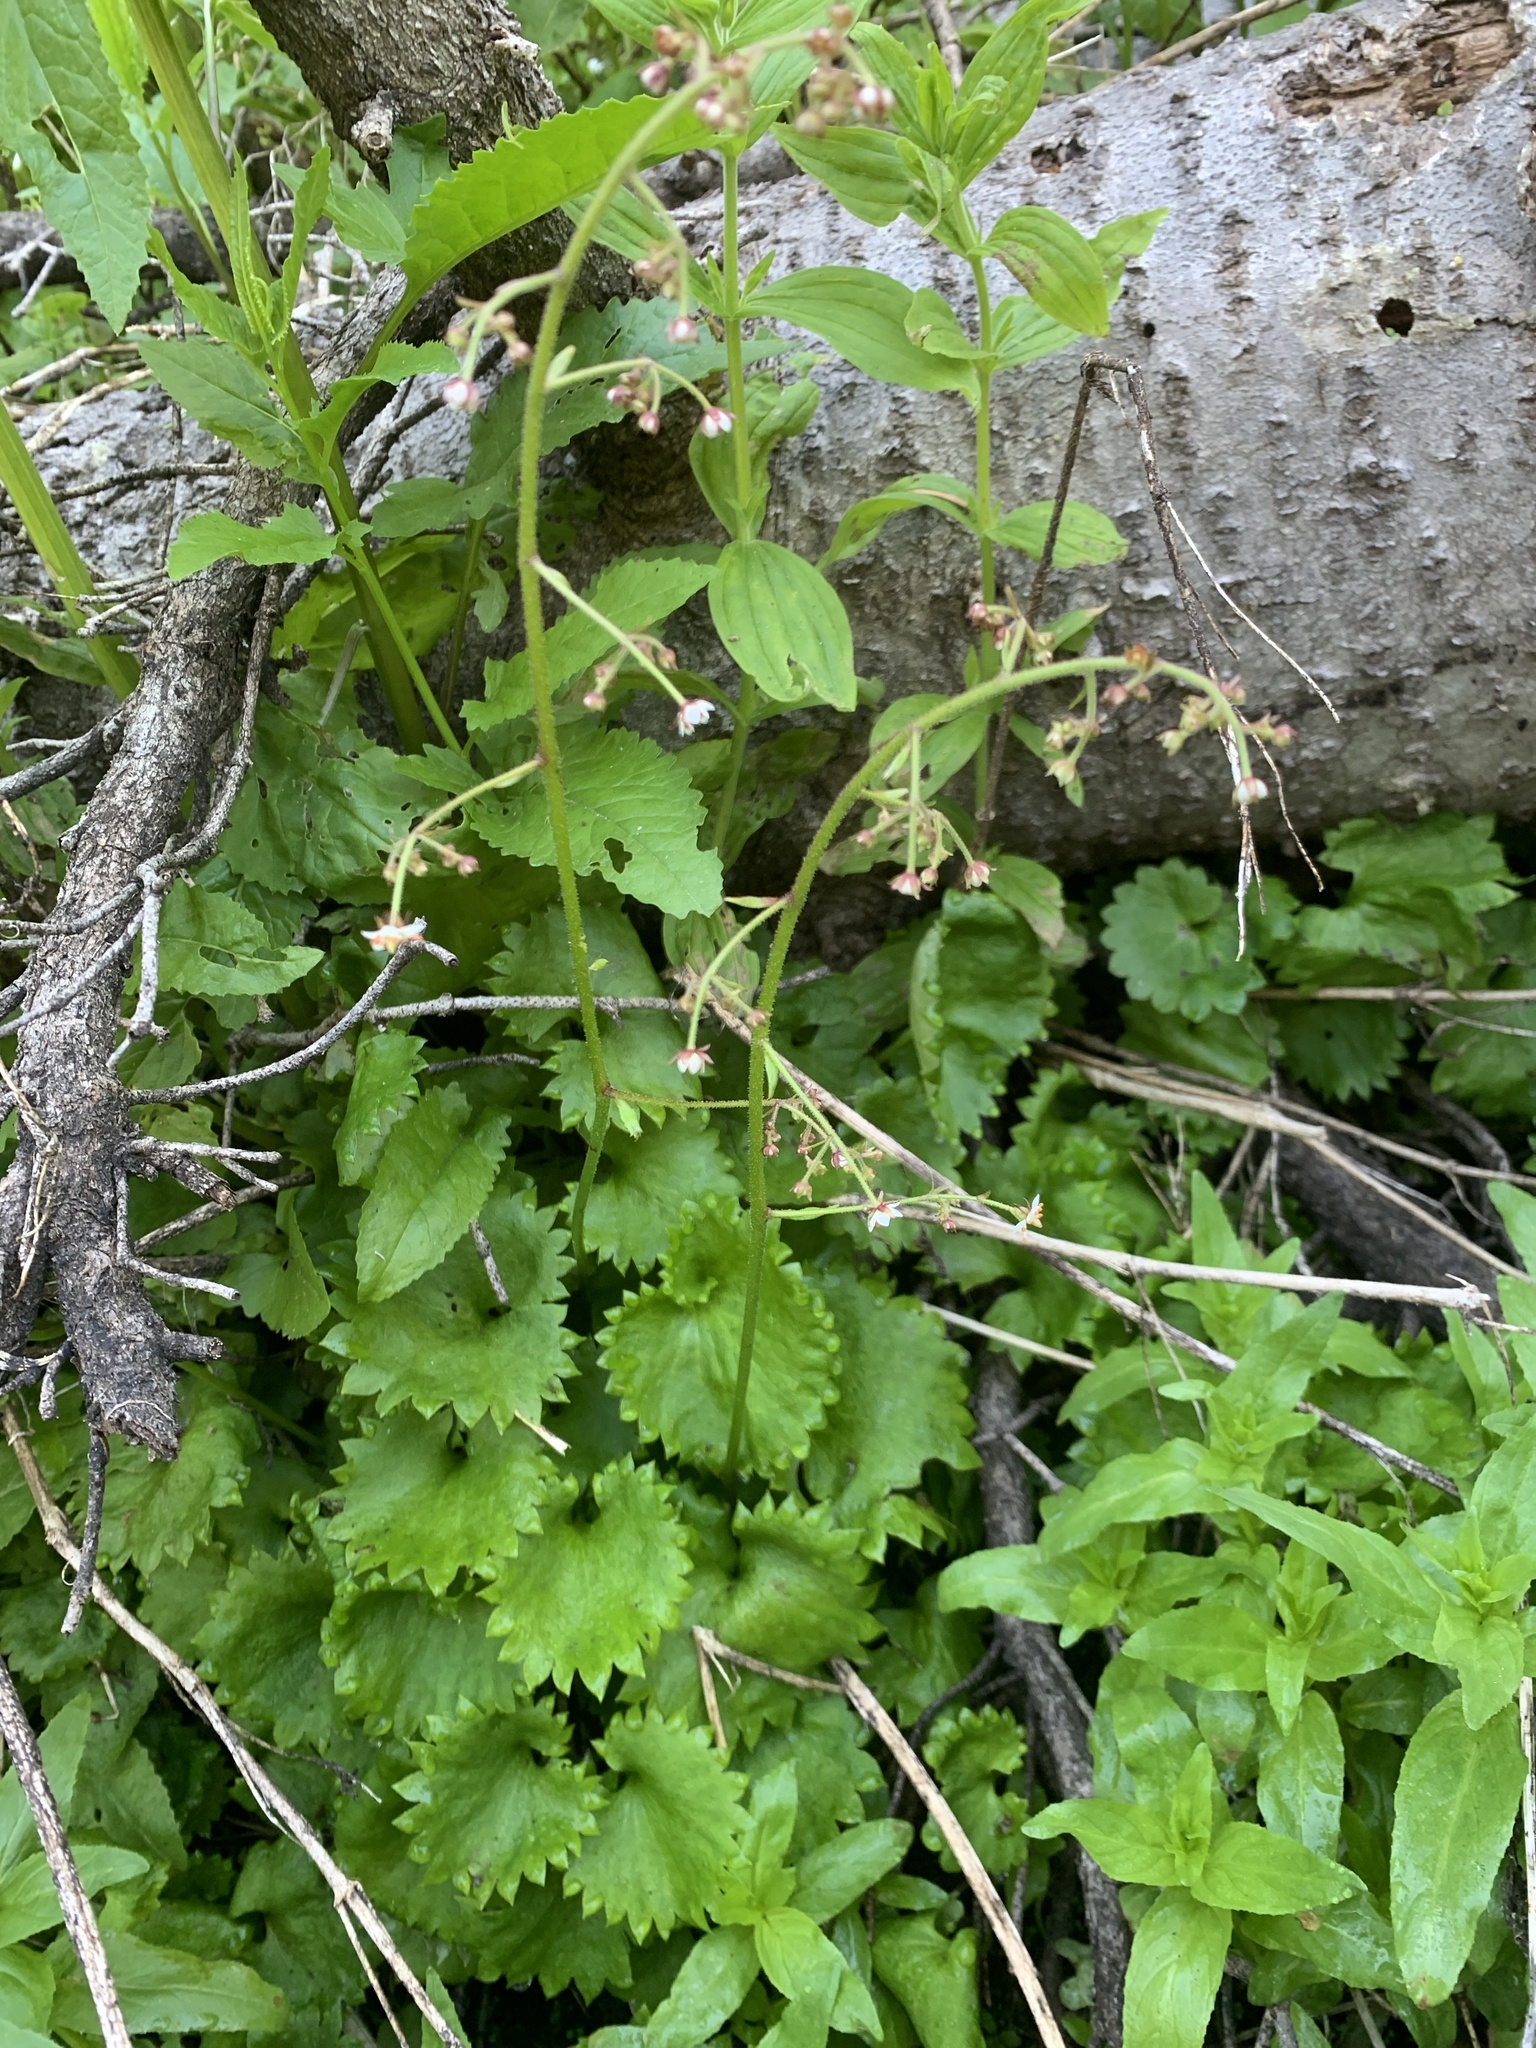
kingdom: Plantae
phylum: Tracheophyta
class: Magnoliopsida
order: Saxifragales
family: Saxifragaceae
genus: Micranthes
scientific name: Micranthes odontoloma
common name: Brook saxifrage
